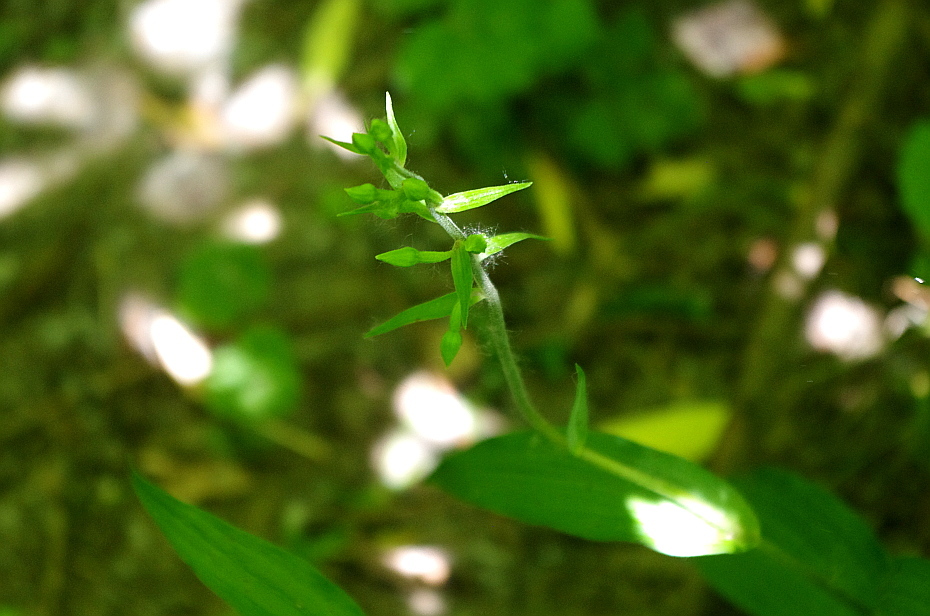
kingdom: Plantae
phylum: Tracheophyta
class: Liliopsida
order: Asparagales
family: Orchidaceae
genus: Epipactis
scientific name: Epipactis helleborine
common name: Broad-leaved helleborine
